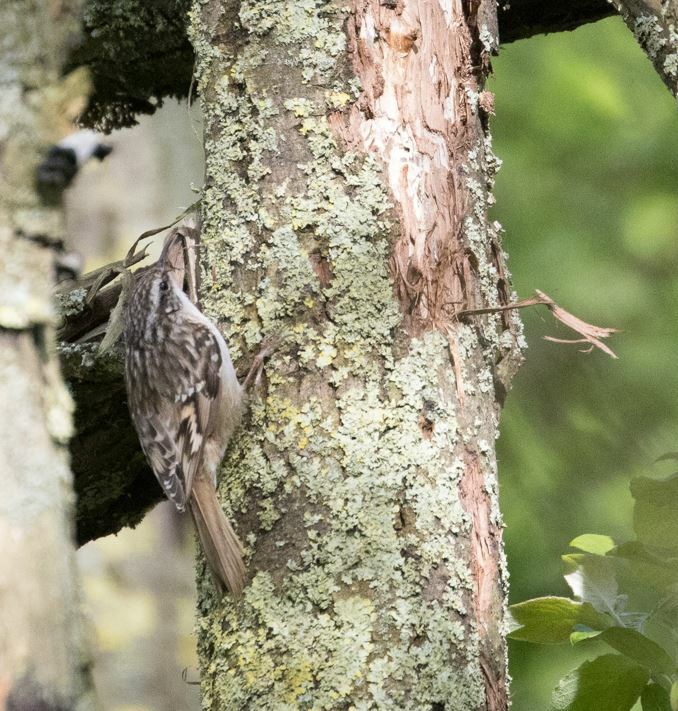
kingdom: Animalia
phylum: Chordata
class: Aves
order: Passeriformes
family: Certhiidae
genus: Certhia
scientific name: Certhia brachydactyla
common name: Short-toed treecreeper
